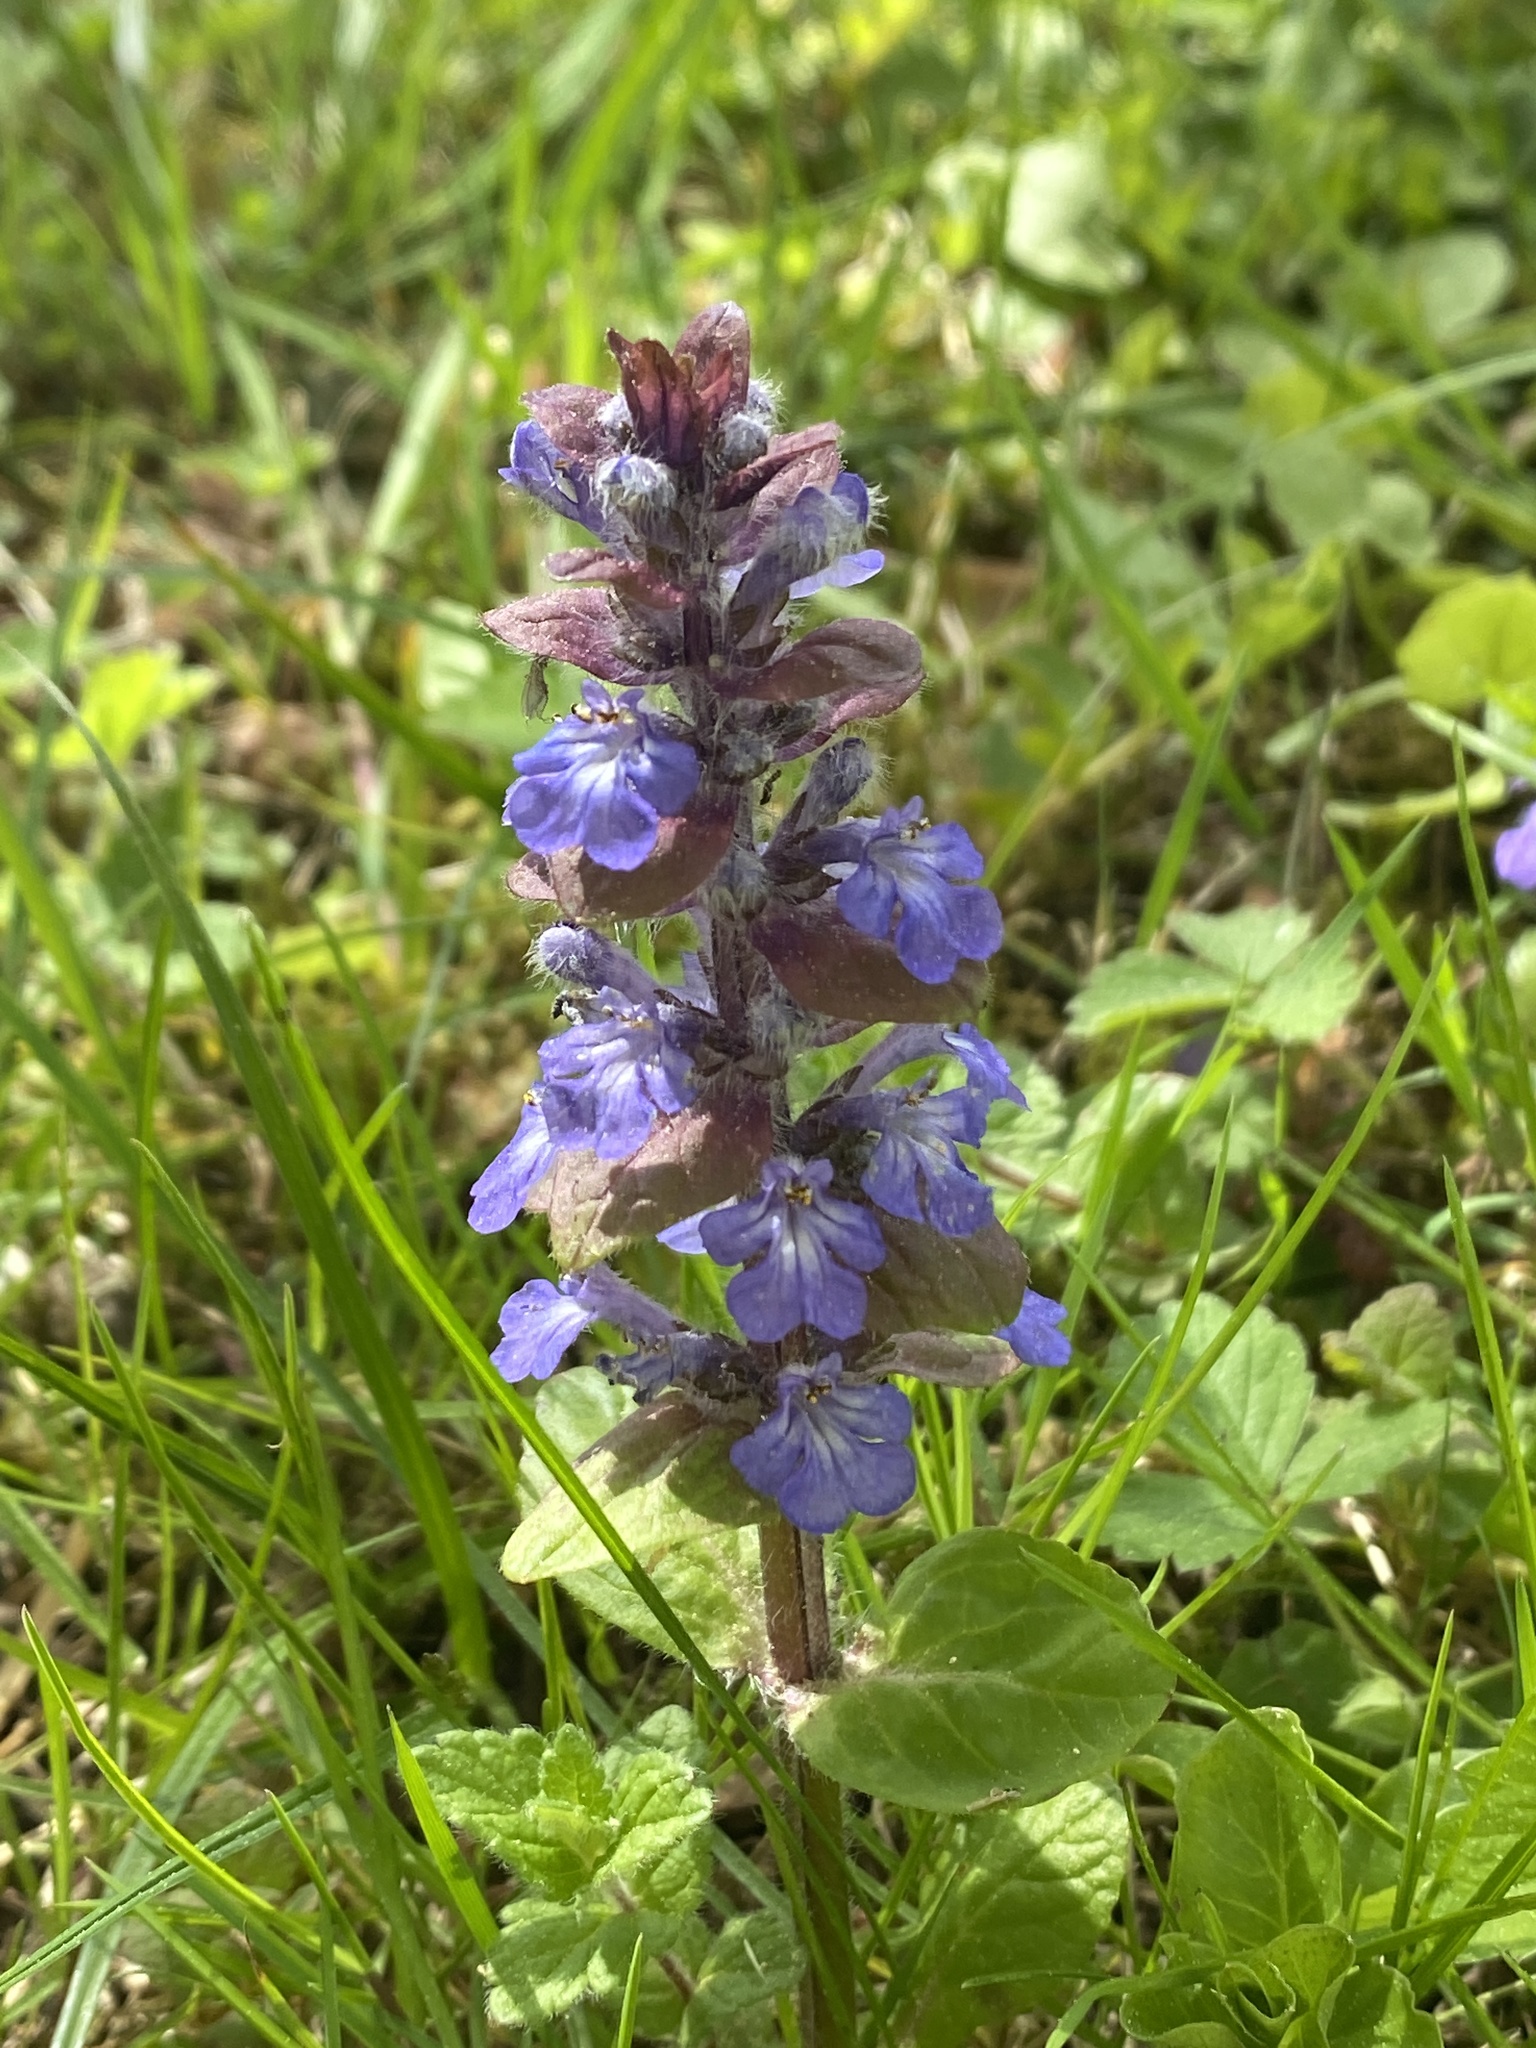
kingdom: Plantae
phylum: Tracheophyta
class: Magnoliopsida
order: Lamiales
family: Lamiaceae
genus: Ajuga
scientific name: Ajuga reptans
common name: Bugle
